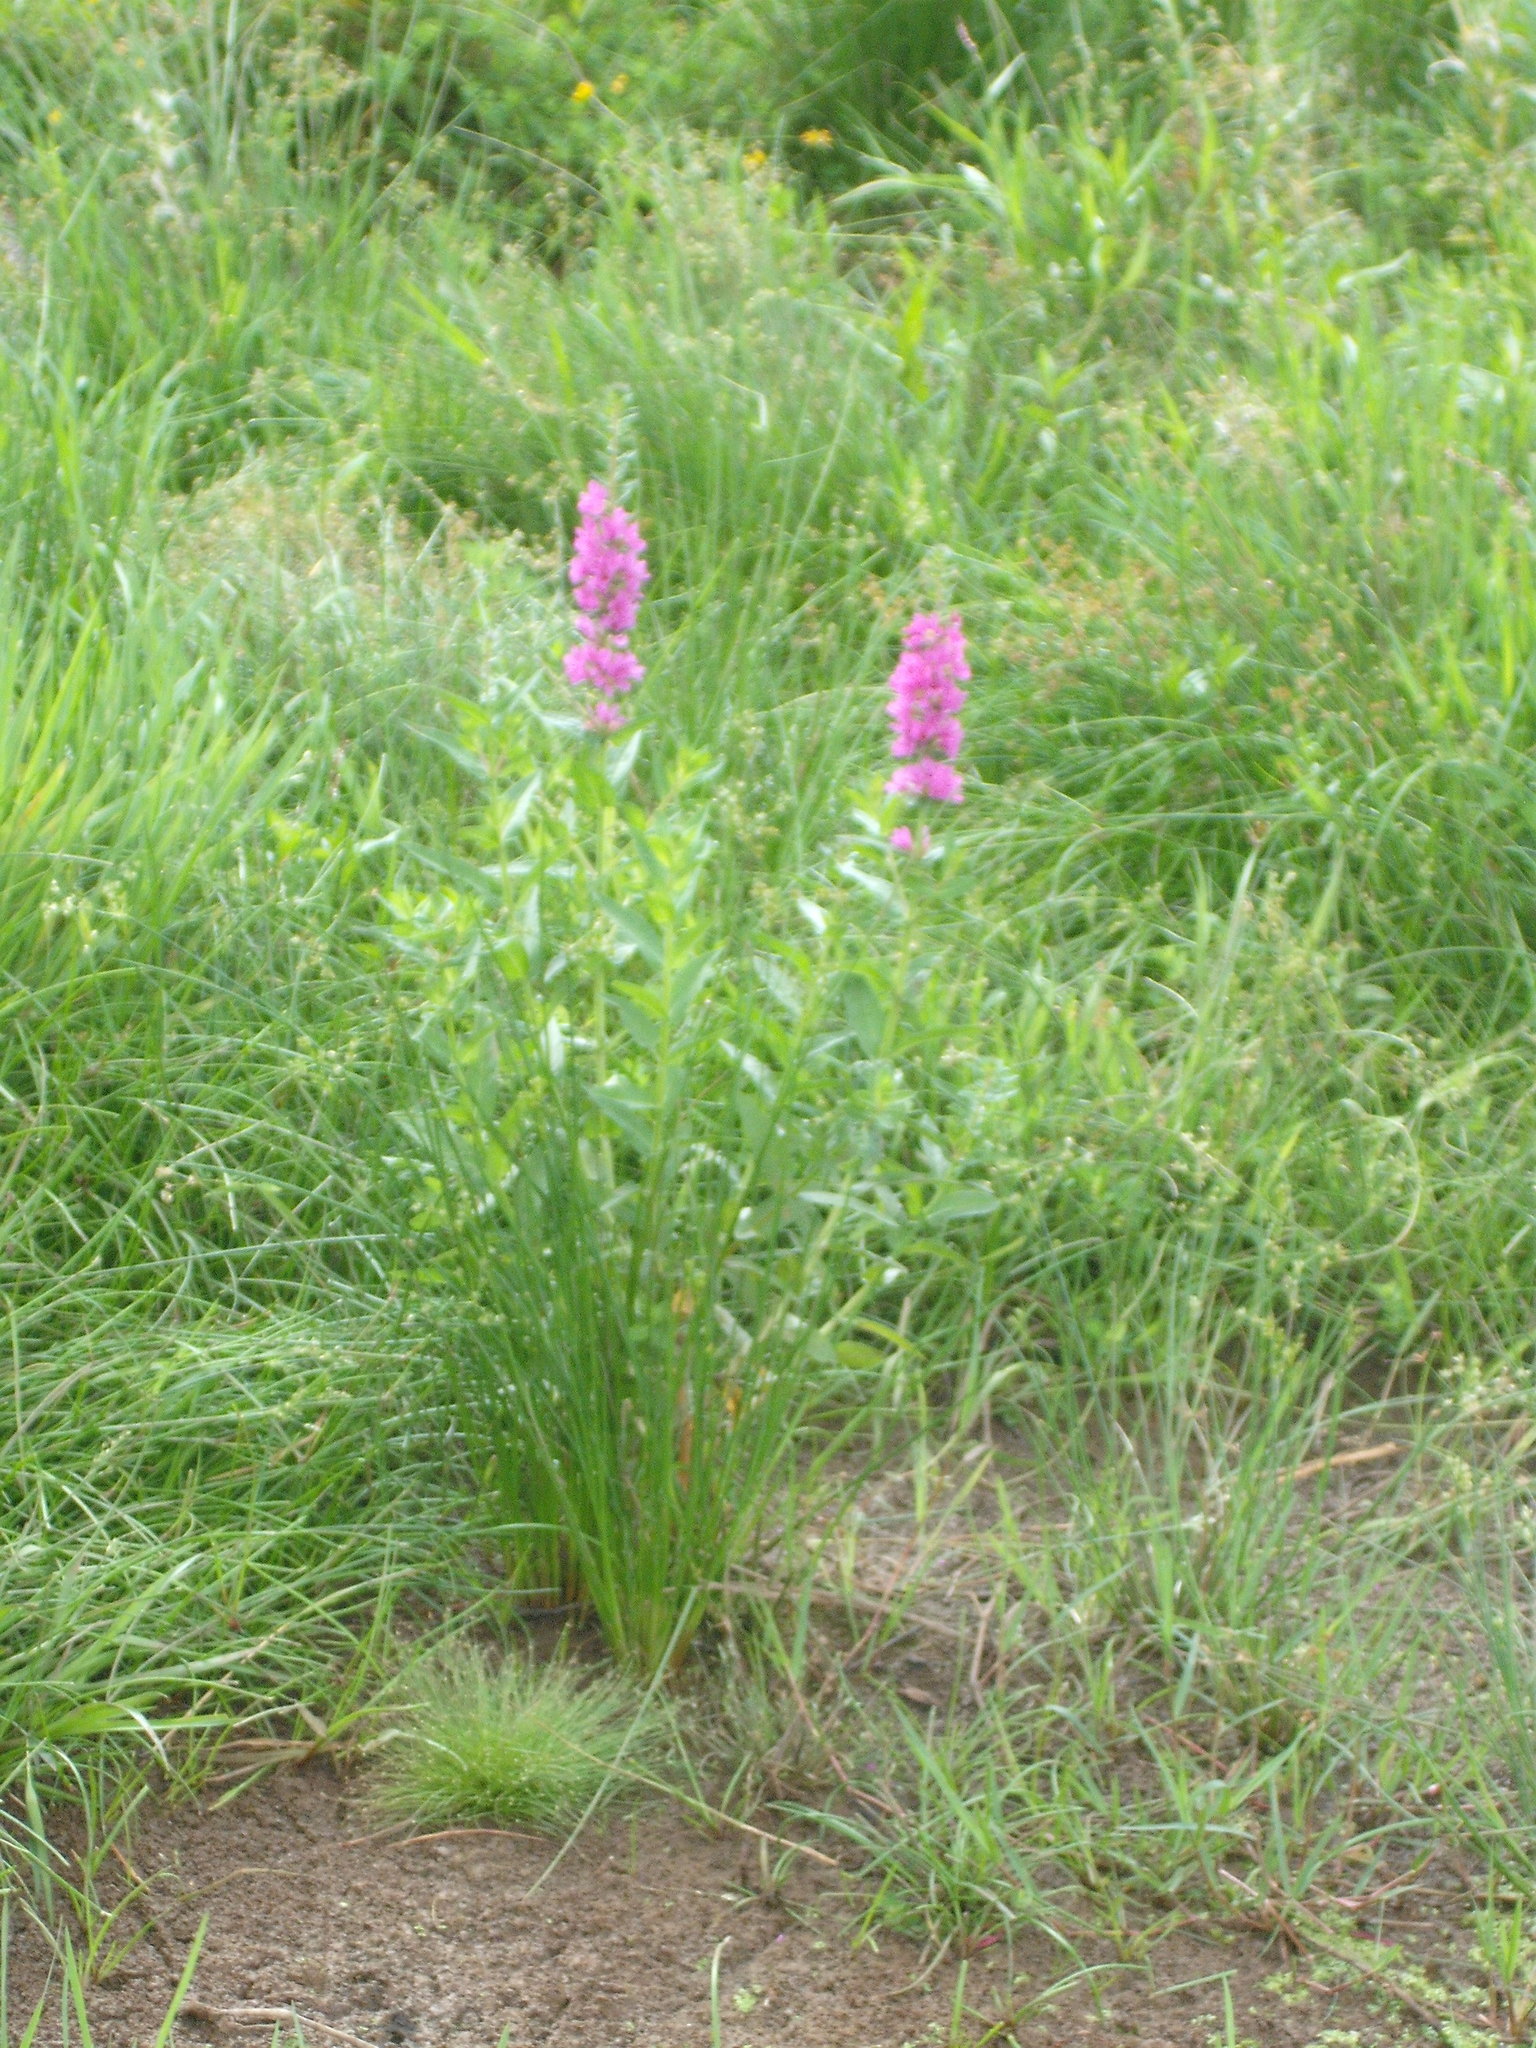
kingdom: Plantae
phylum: Tracheophyta
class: Magnoliopsida
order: Myrtales
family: Lythraceae
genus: Lythrum
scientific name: Lythrum salicaria
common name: Purple loosestrife
